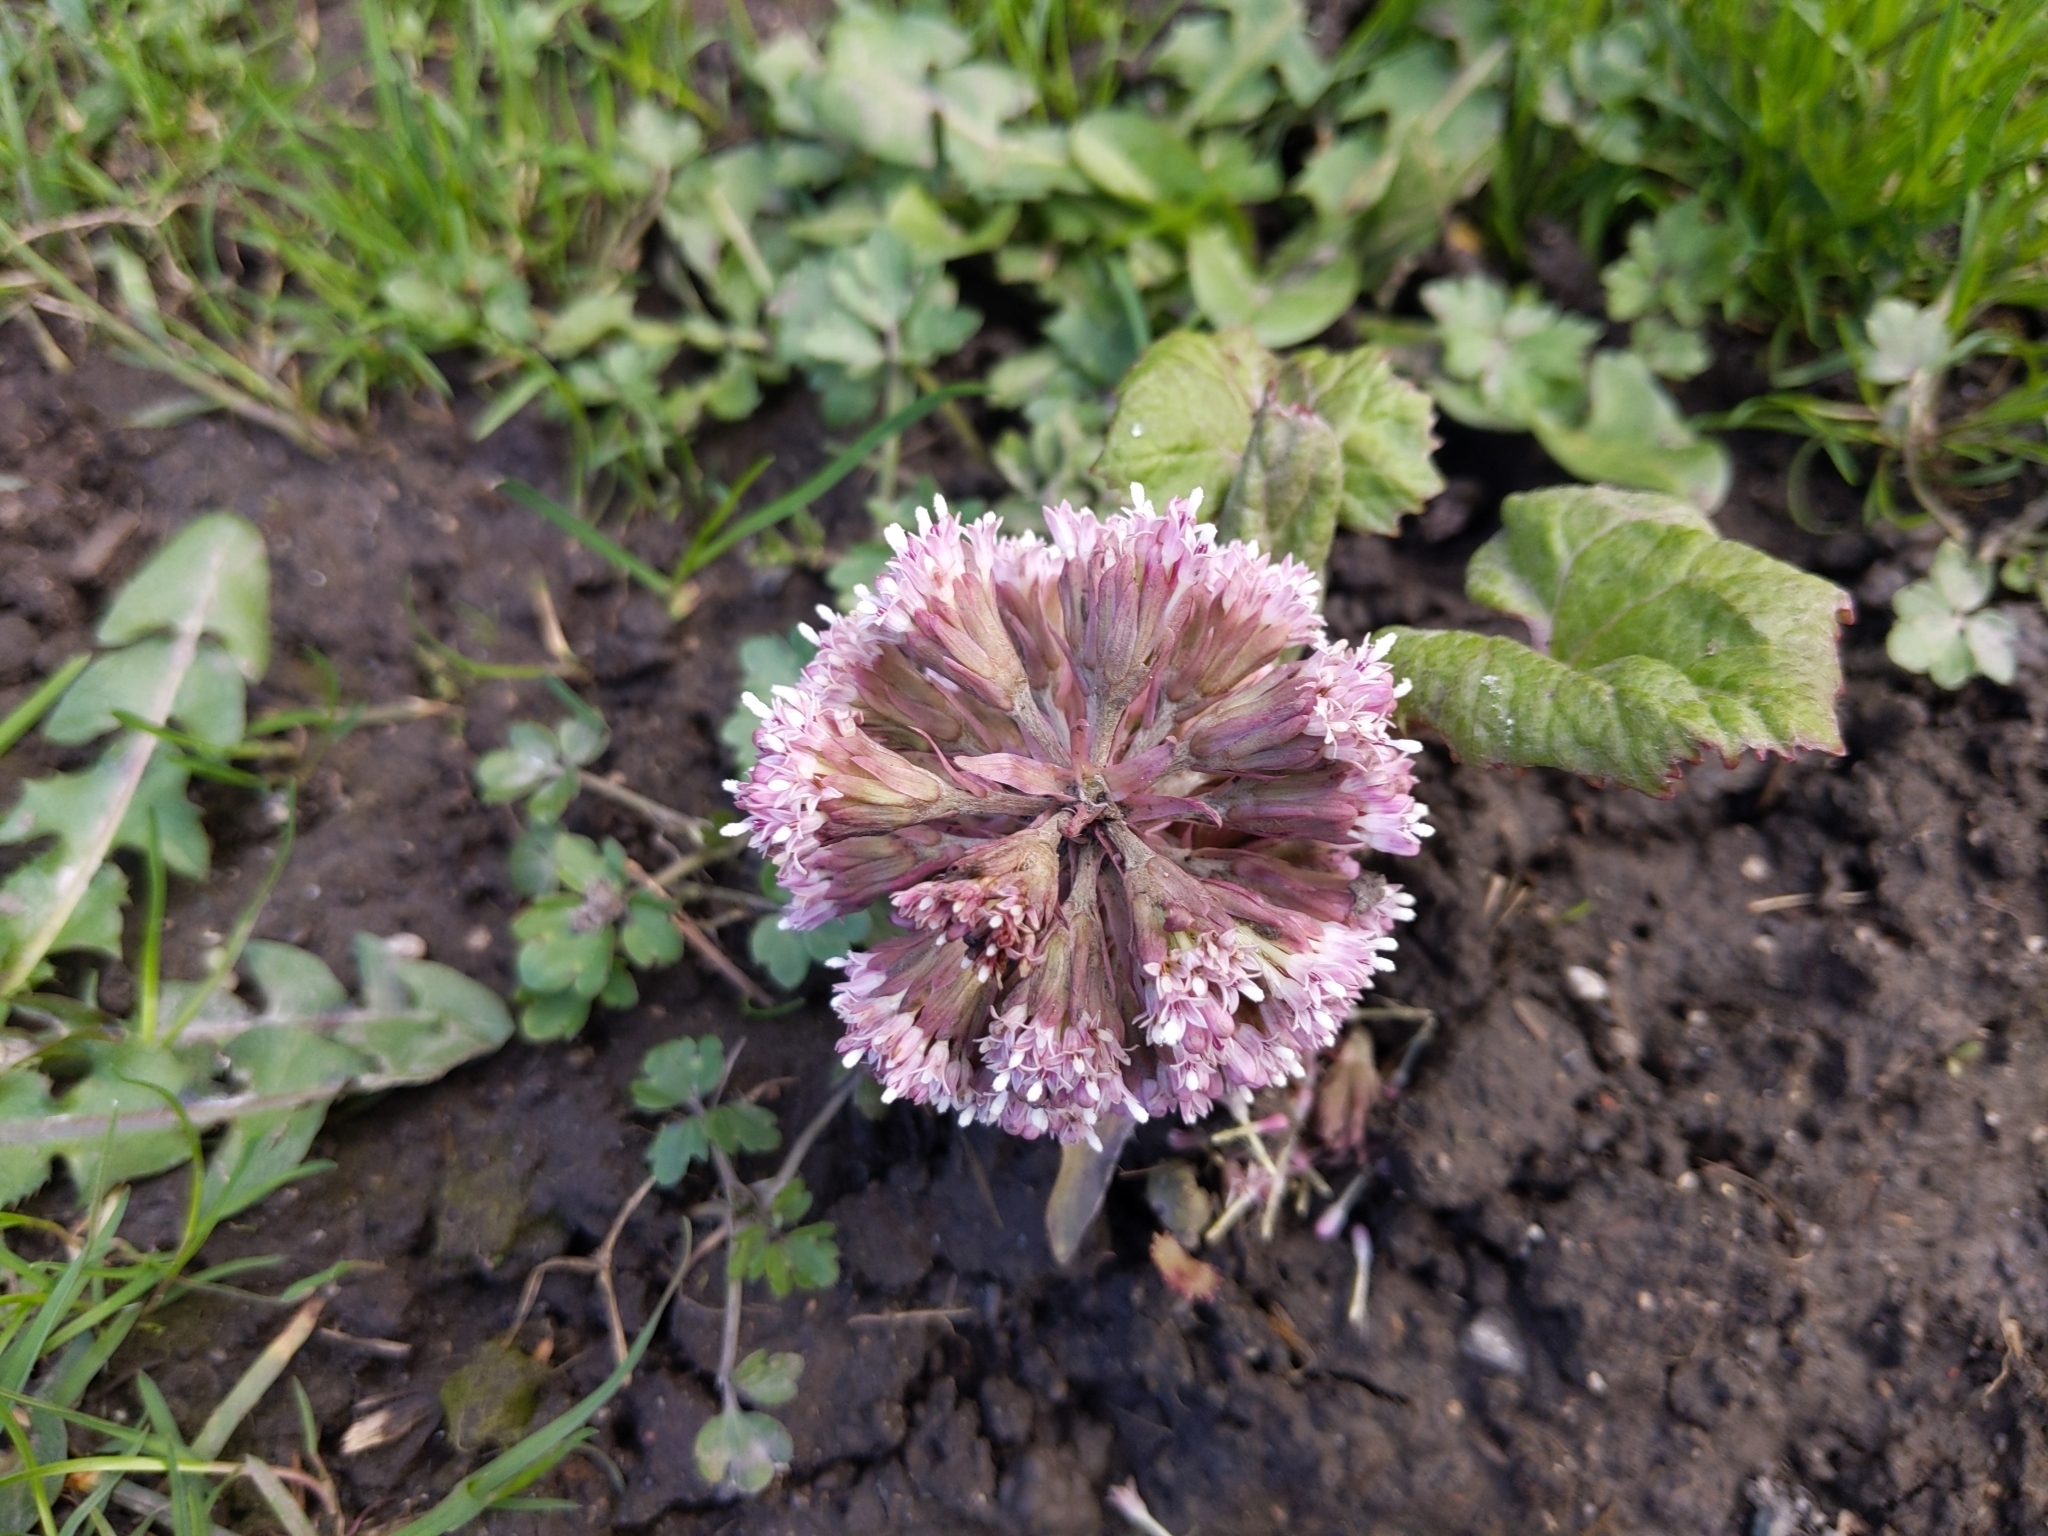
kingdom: Plantae
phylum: Tracheophyta
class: Magnoliopsida
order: Asterales
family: Asteraceae
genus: Petasites
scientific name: Petasites hybridus
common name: Butterbur
